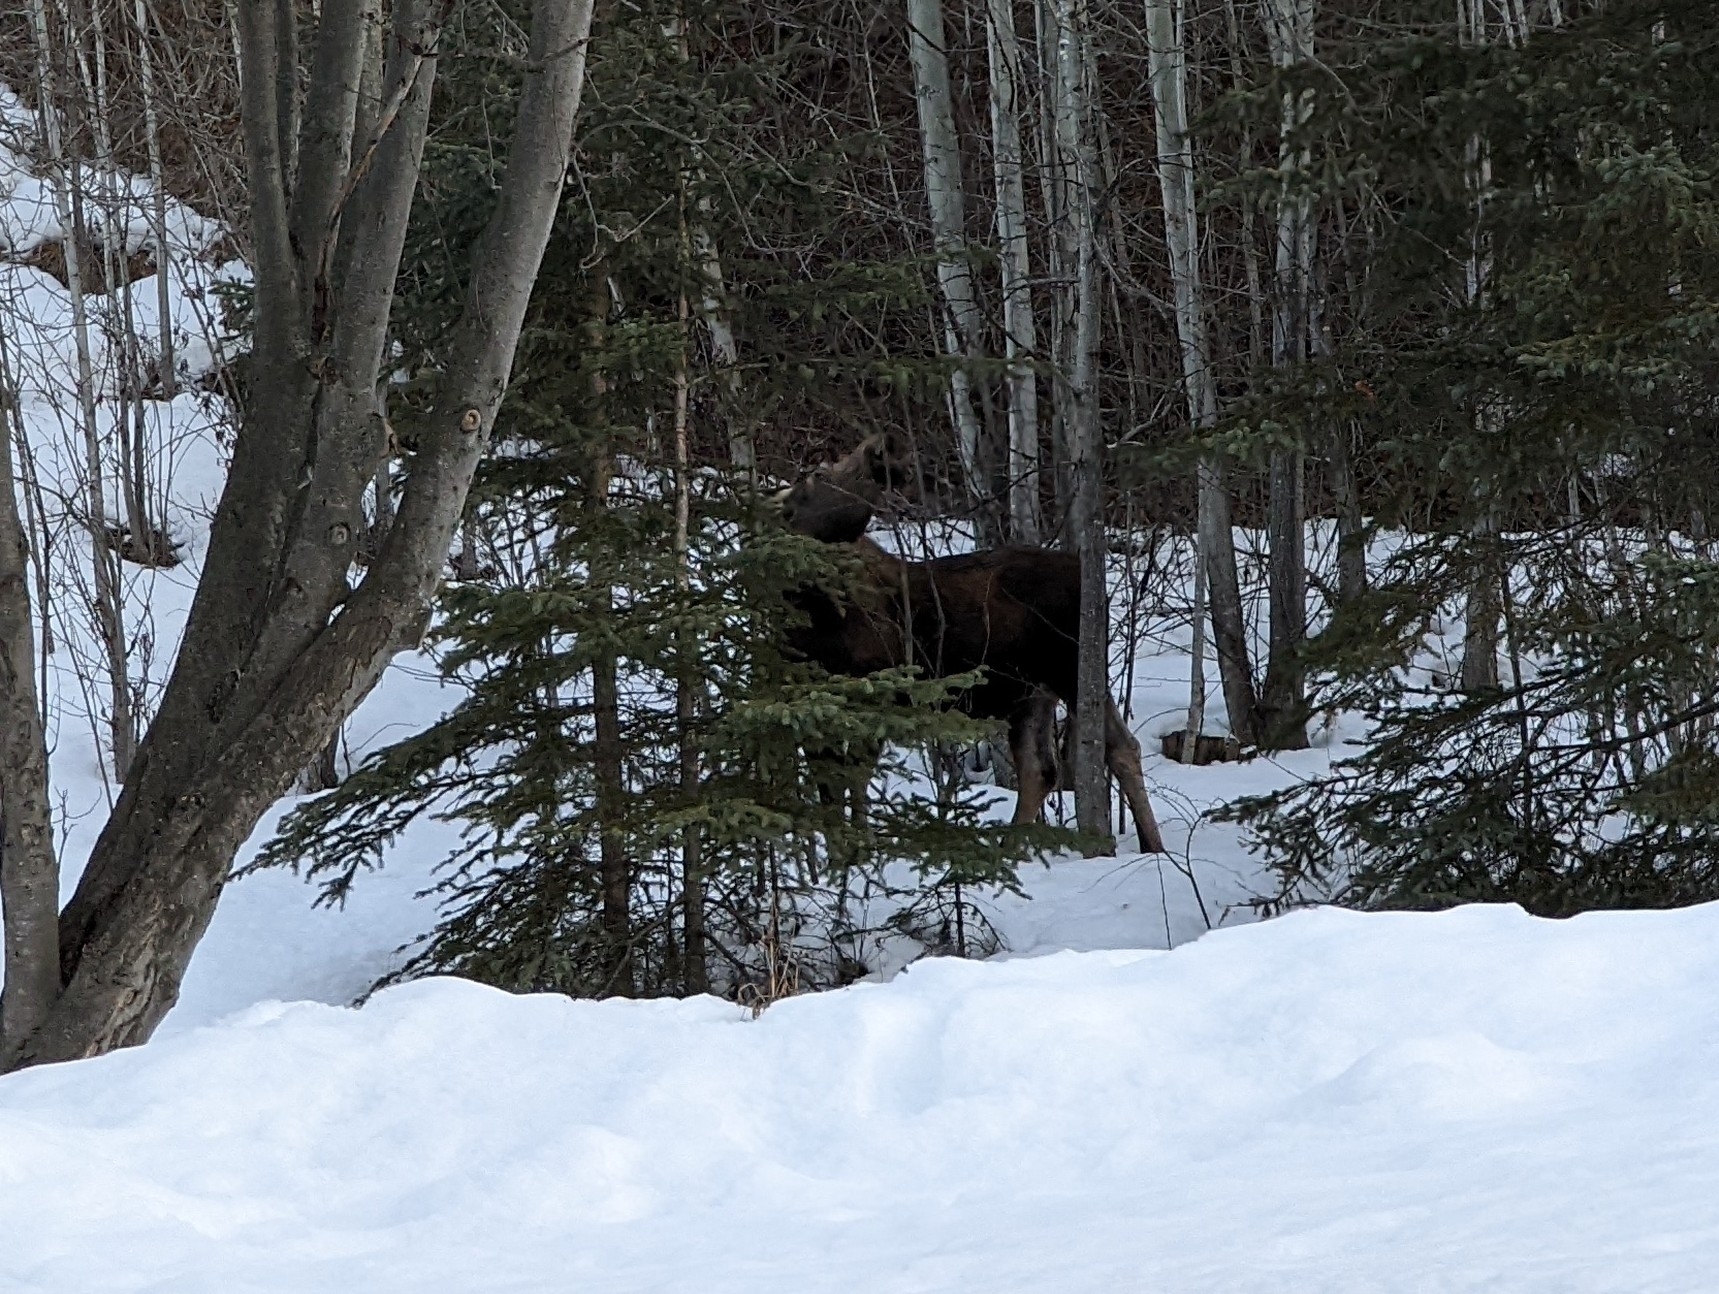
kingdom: Animalia
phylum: Chordata
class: Mammalia
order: Artiodactyla
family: Cervidae
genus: Alces
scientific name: Alces alces
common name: Moose
